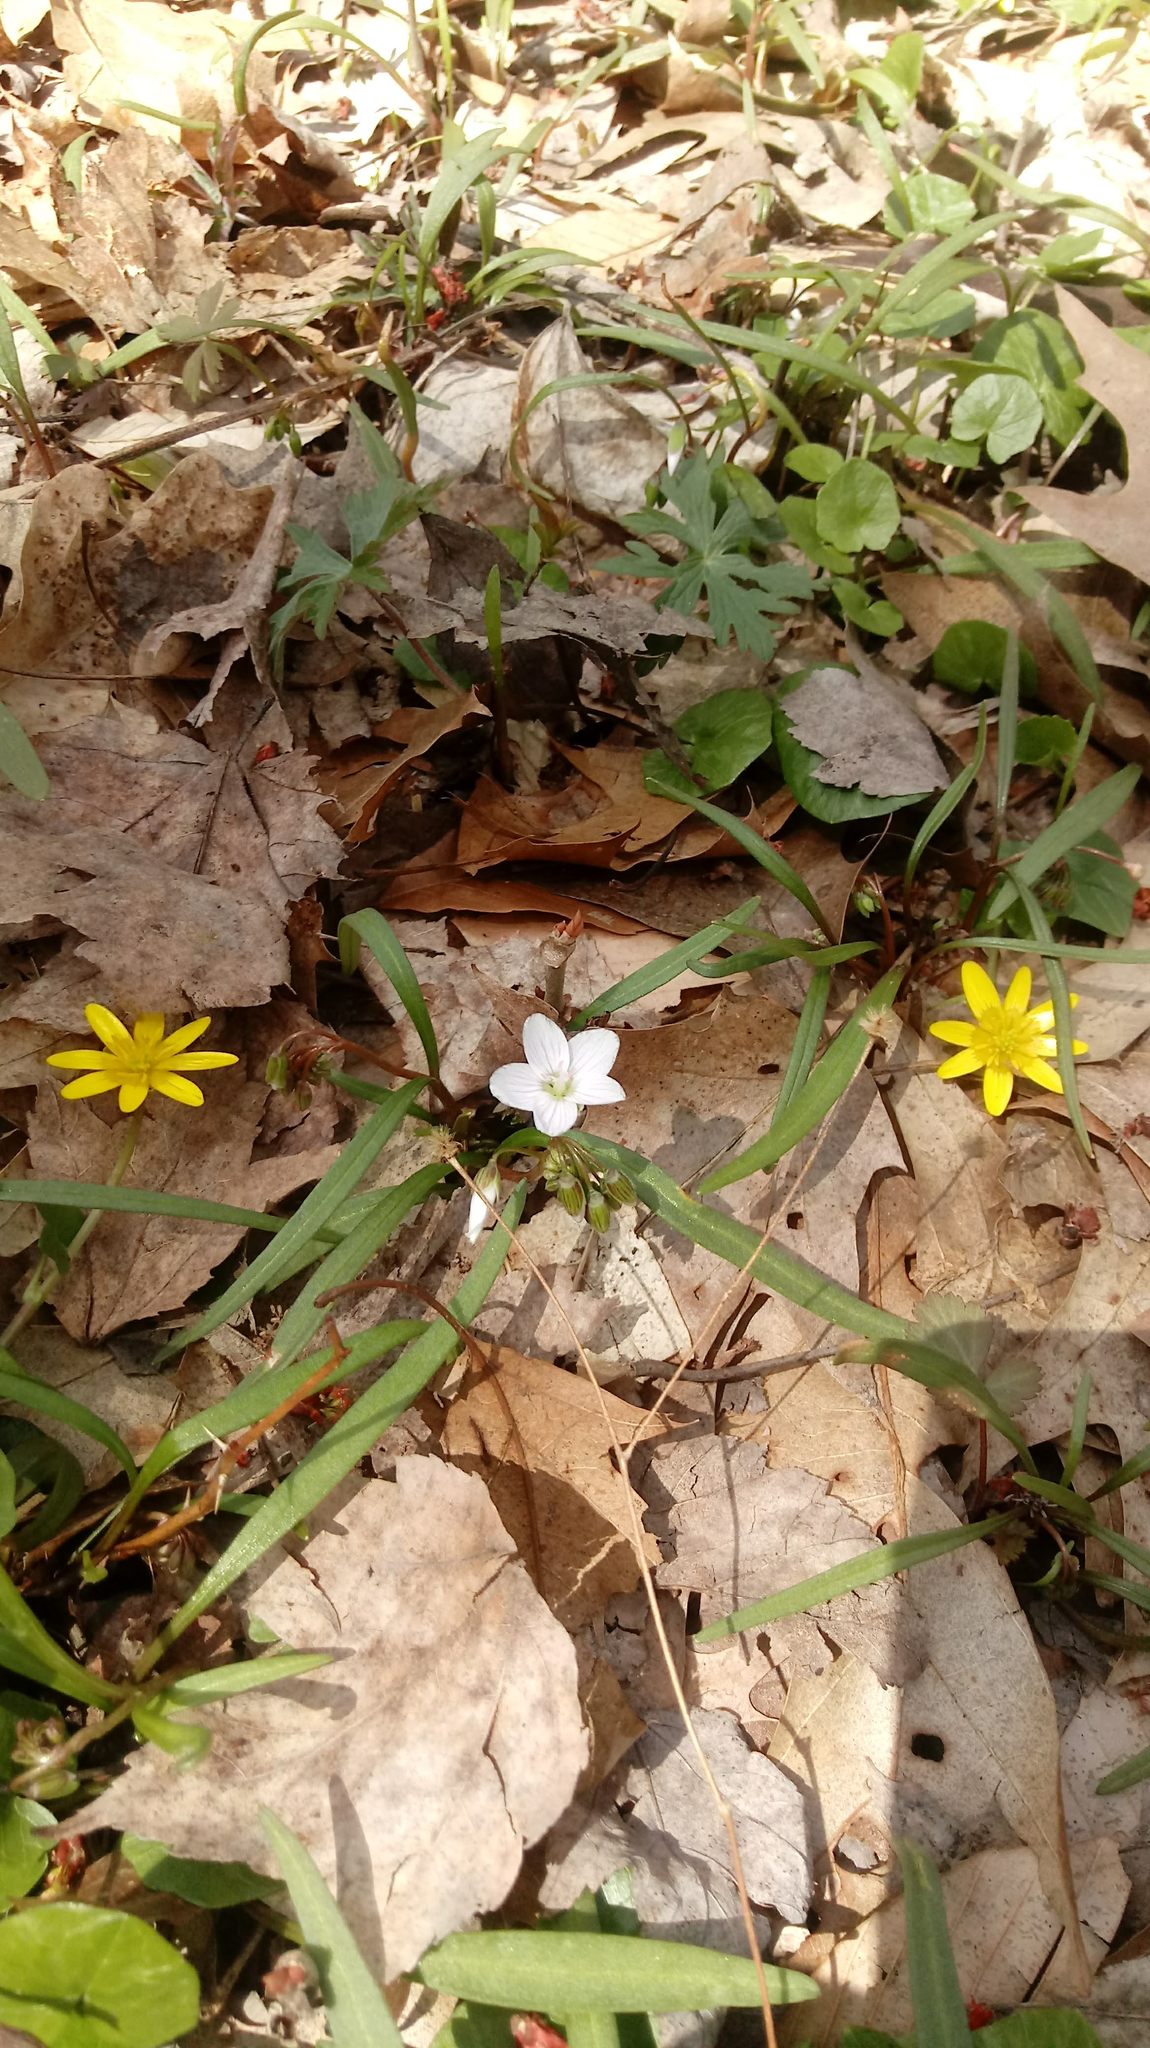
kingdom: Plantae
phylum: Tracheophyta
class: Magnoliopsida
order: Caryophyllales
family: Montiaceae
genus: Claytonia
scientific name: Claytonia virginica
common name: Virginia springbeauty
